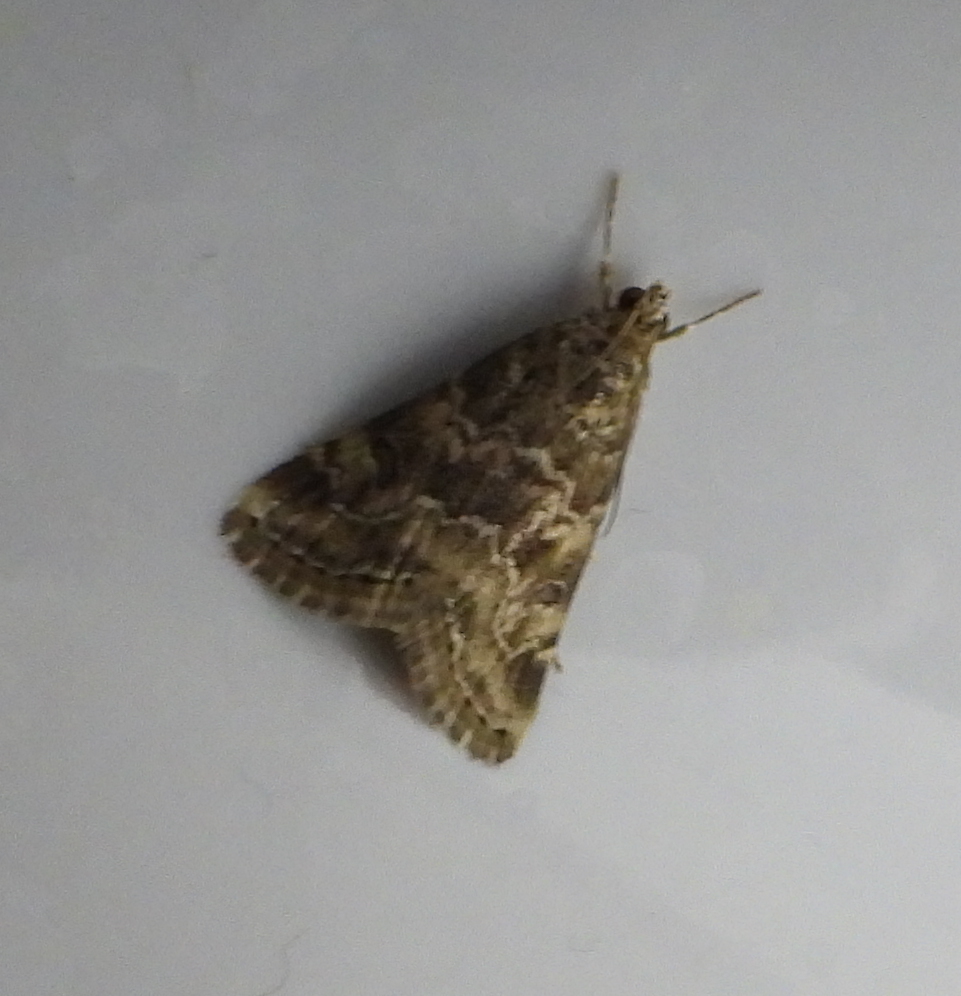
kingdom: Animalia
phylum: Arthropoda
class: Insecta
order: Lepidoptera
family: Crambidae
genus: Hellula
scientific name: Hellula undalis
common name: Cabbage webworm
